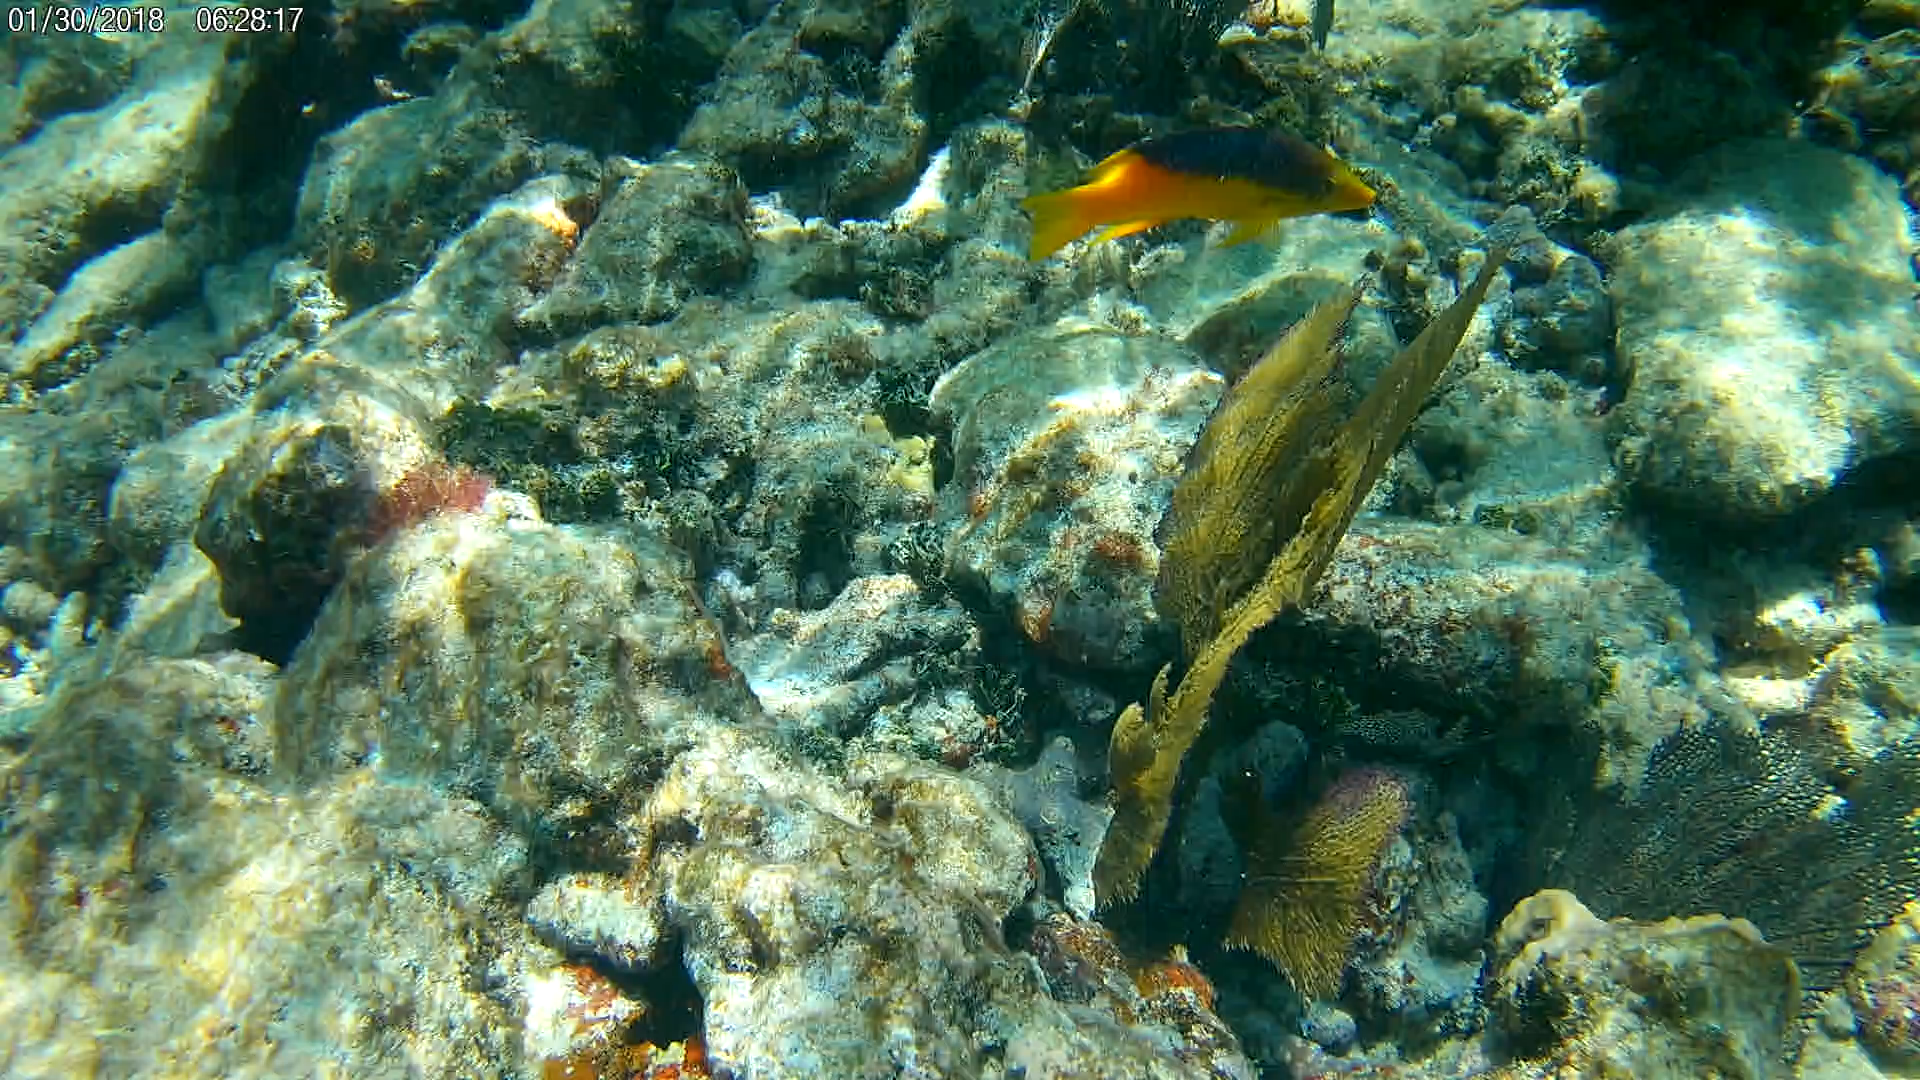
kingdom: Animalia
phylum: Chordata
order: Perciformes
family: Labridae
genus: Bodianus
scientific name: Bodianus rufus
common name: Spanish hogfish
